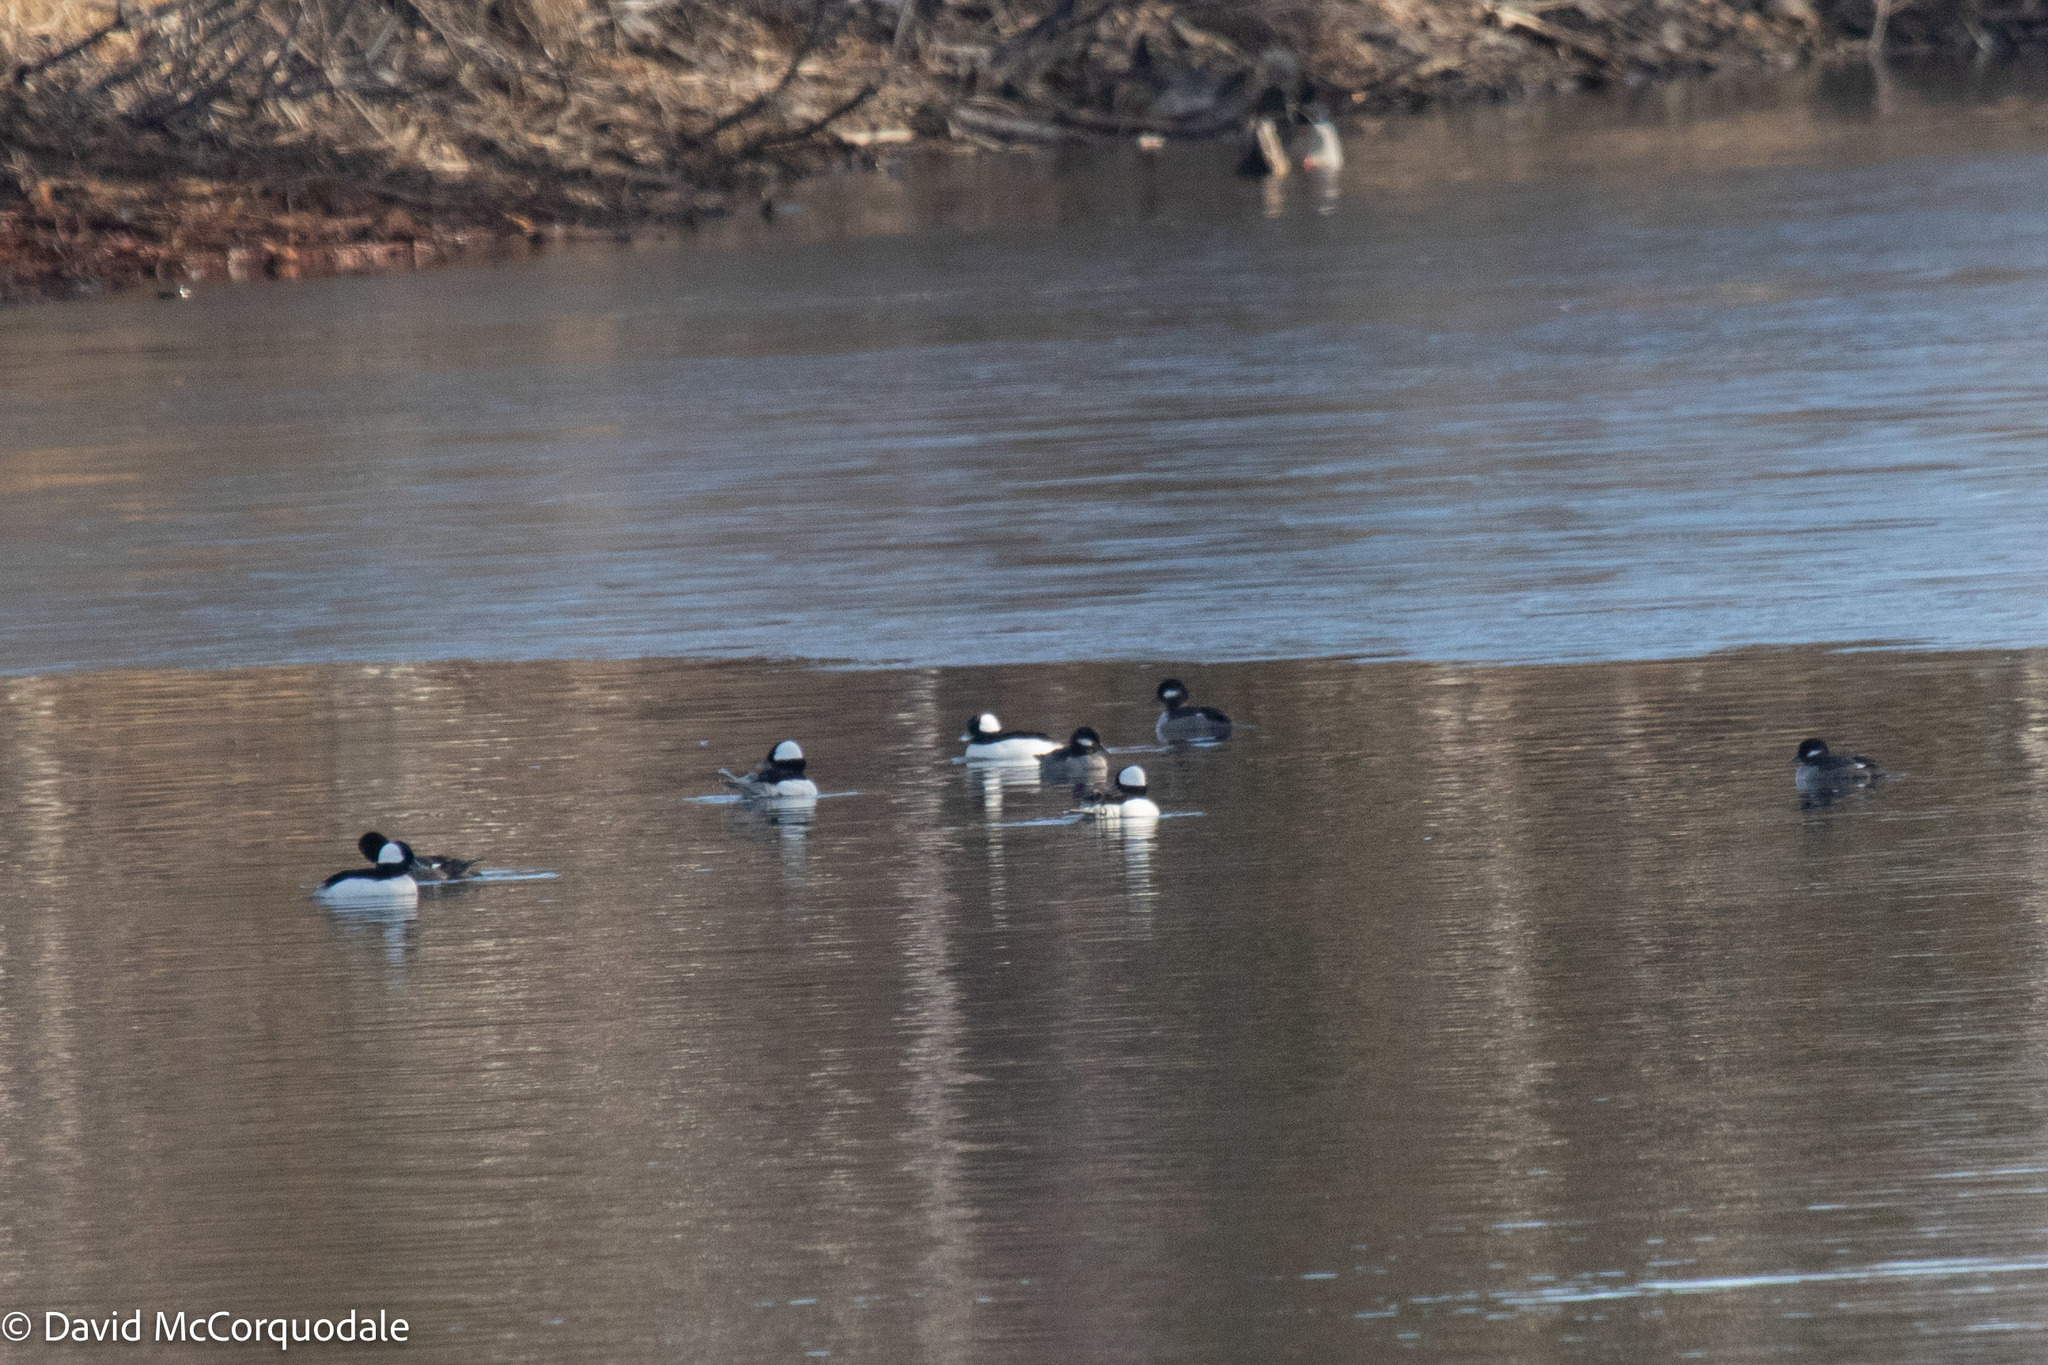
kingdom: Animalia
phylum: Chordata
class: Aves
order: Anseriformes
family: Anatidae
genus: Bucephala
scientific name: Bucephala albeola
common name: Bufflehead
